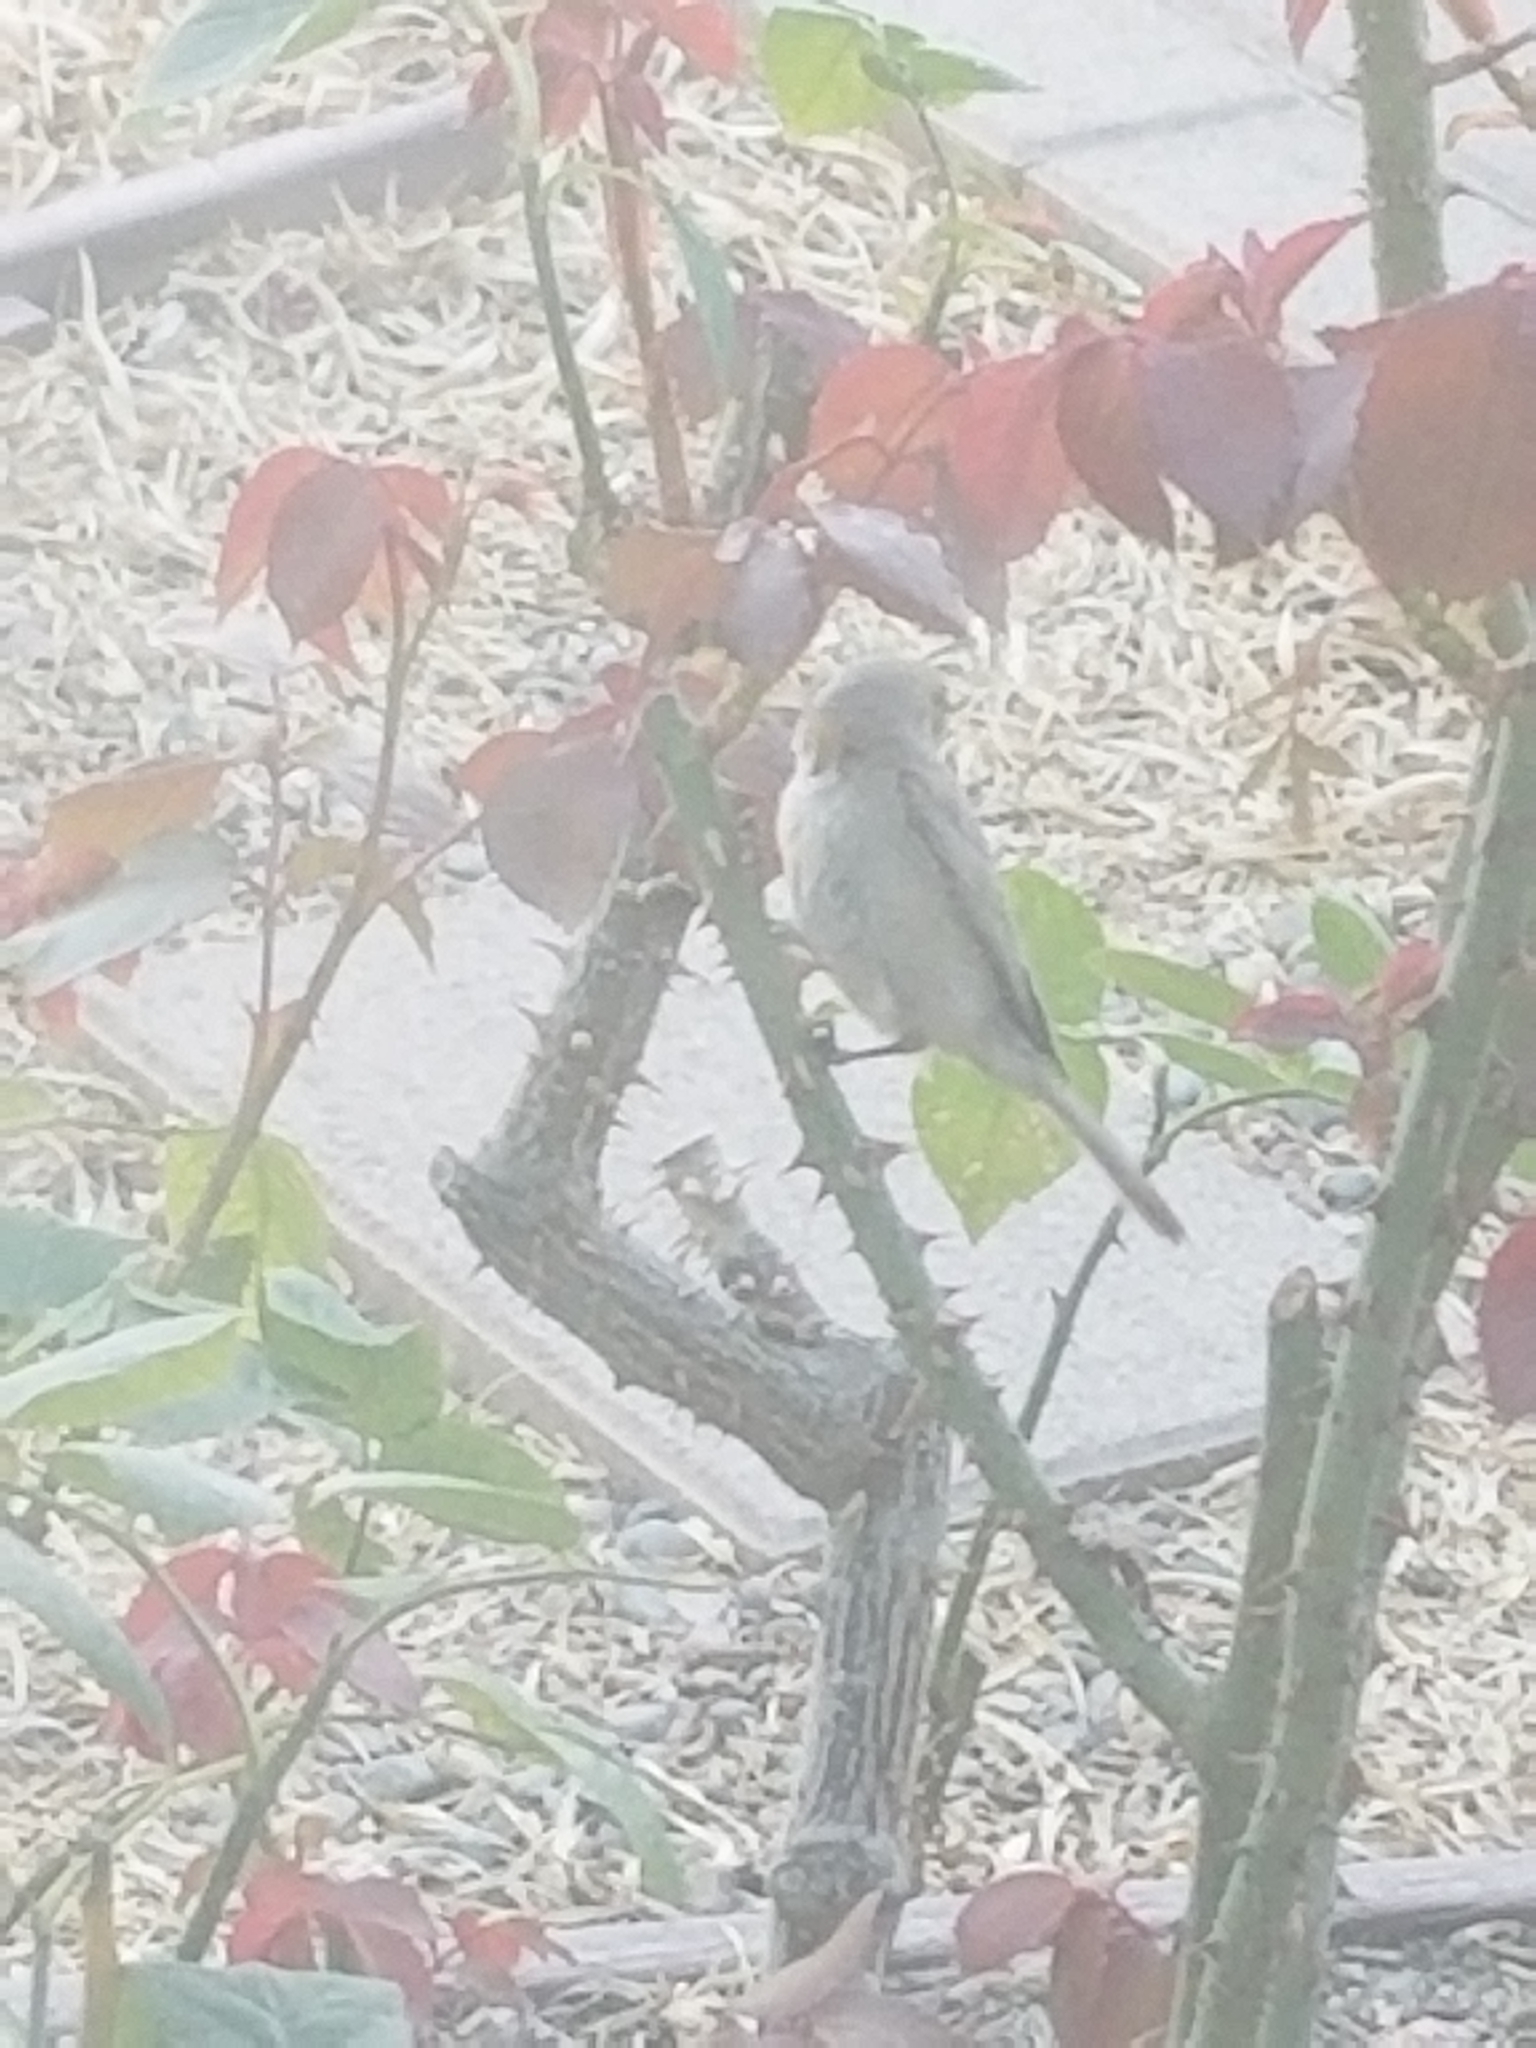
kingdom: Animalia
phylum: Chordata
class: Aves
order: Passeriformes
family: Remizidae
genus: Auriparus
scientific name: Auriparus flaviceps
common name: Verdin
